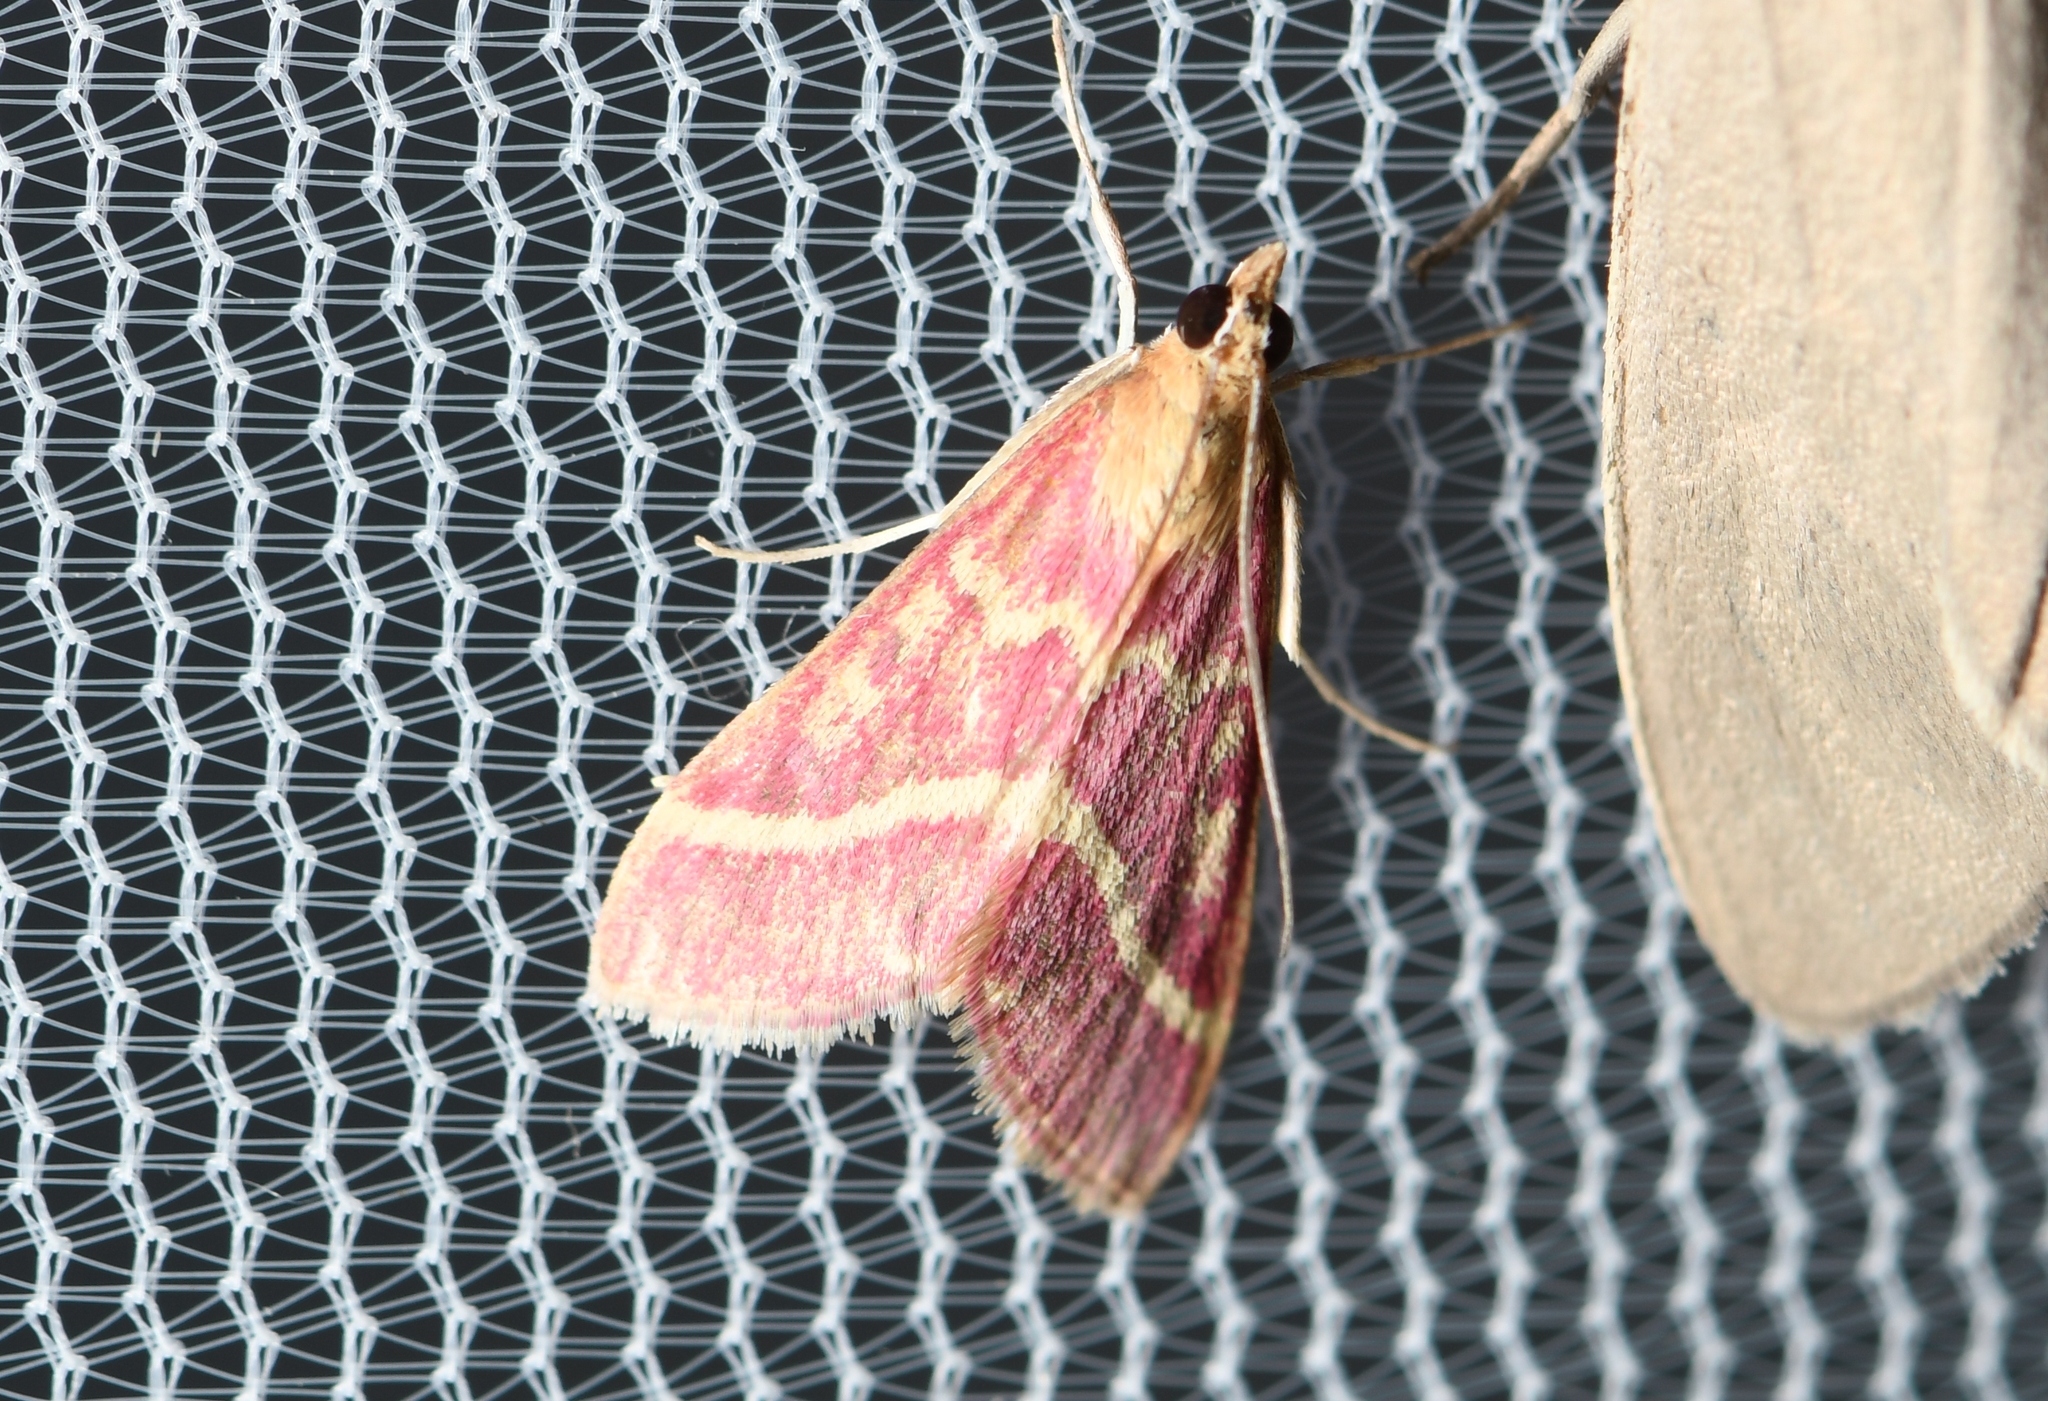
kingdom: Animalia
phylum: Arthropoda
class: Insecta
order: Lepidoptera
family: Crambidae
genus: Pyrausta
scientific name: Pyrausta volupialis
